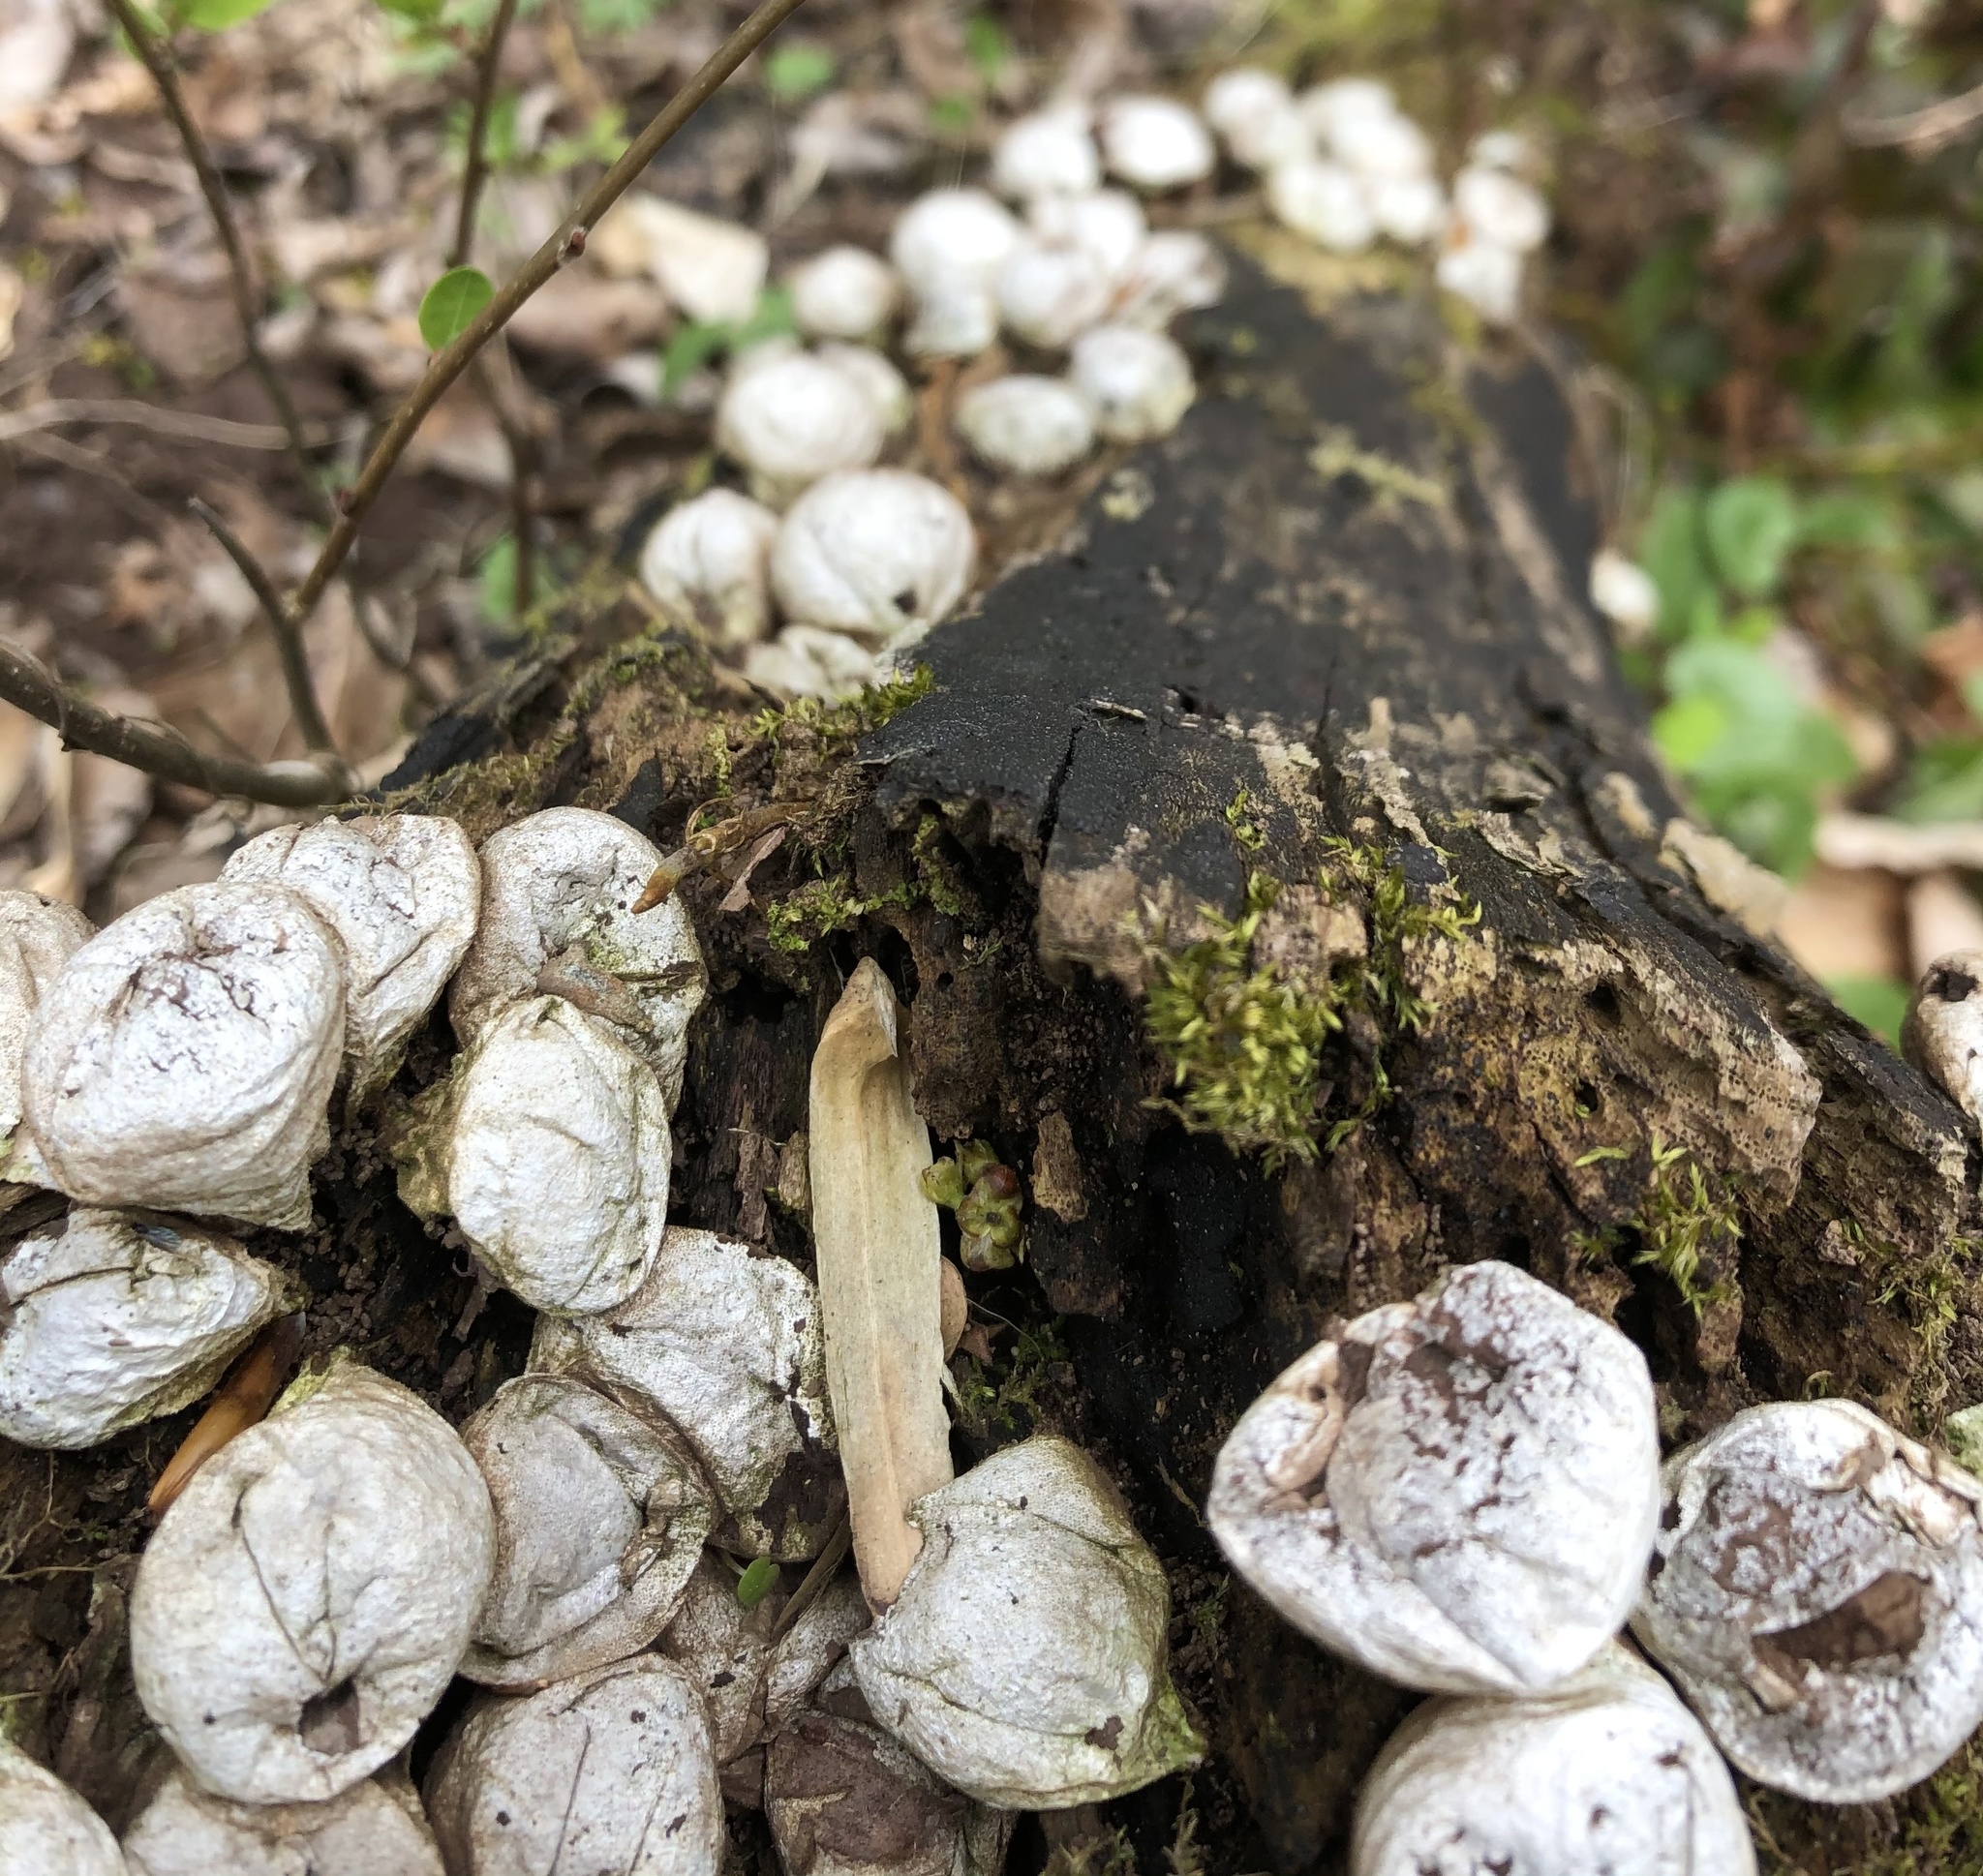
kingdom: Fungi
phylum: Basidiomycota
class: Agaricomycetes
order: Agaricales
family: Lycoperdaceae
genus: Apioperdon
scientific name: Apioperdon pyriforme
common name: Pear-shaped puffball
